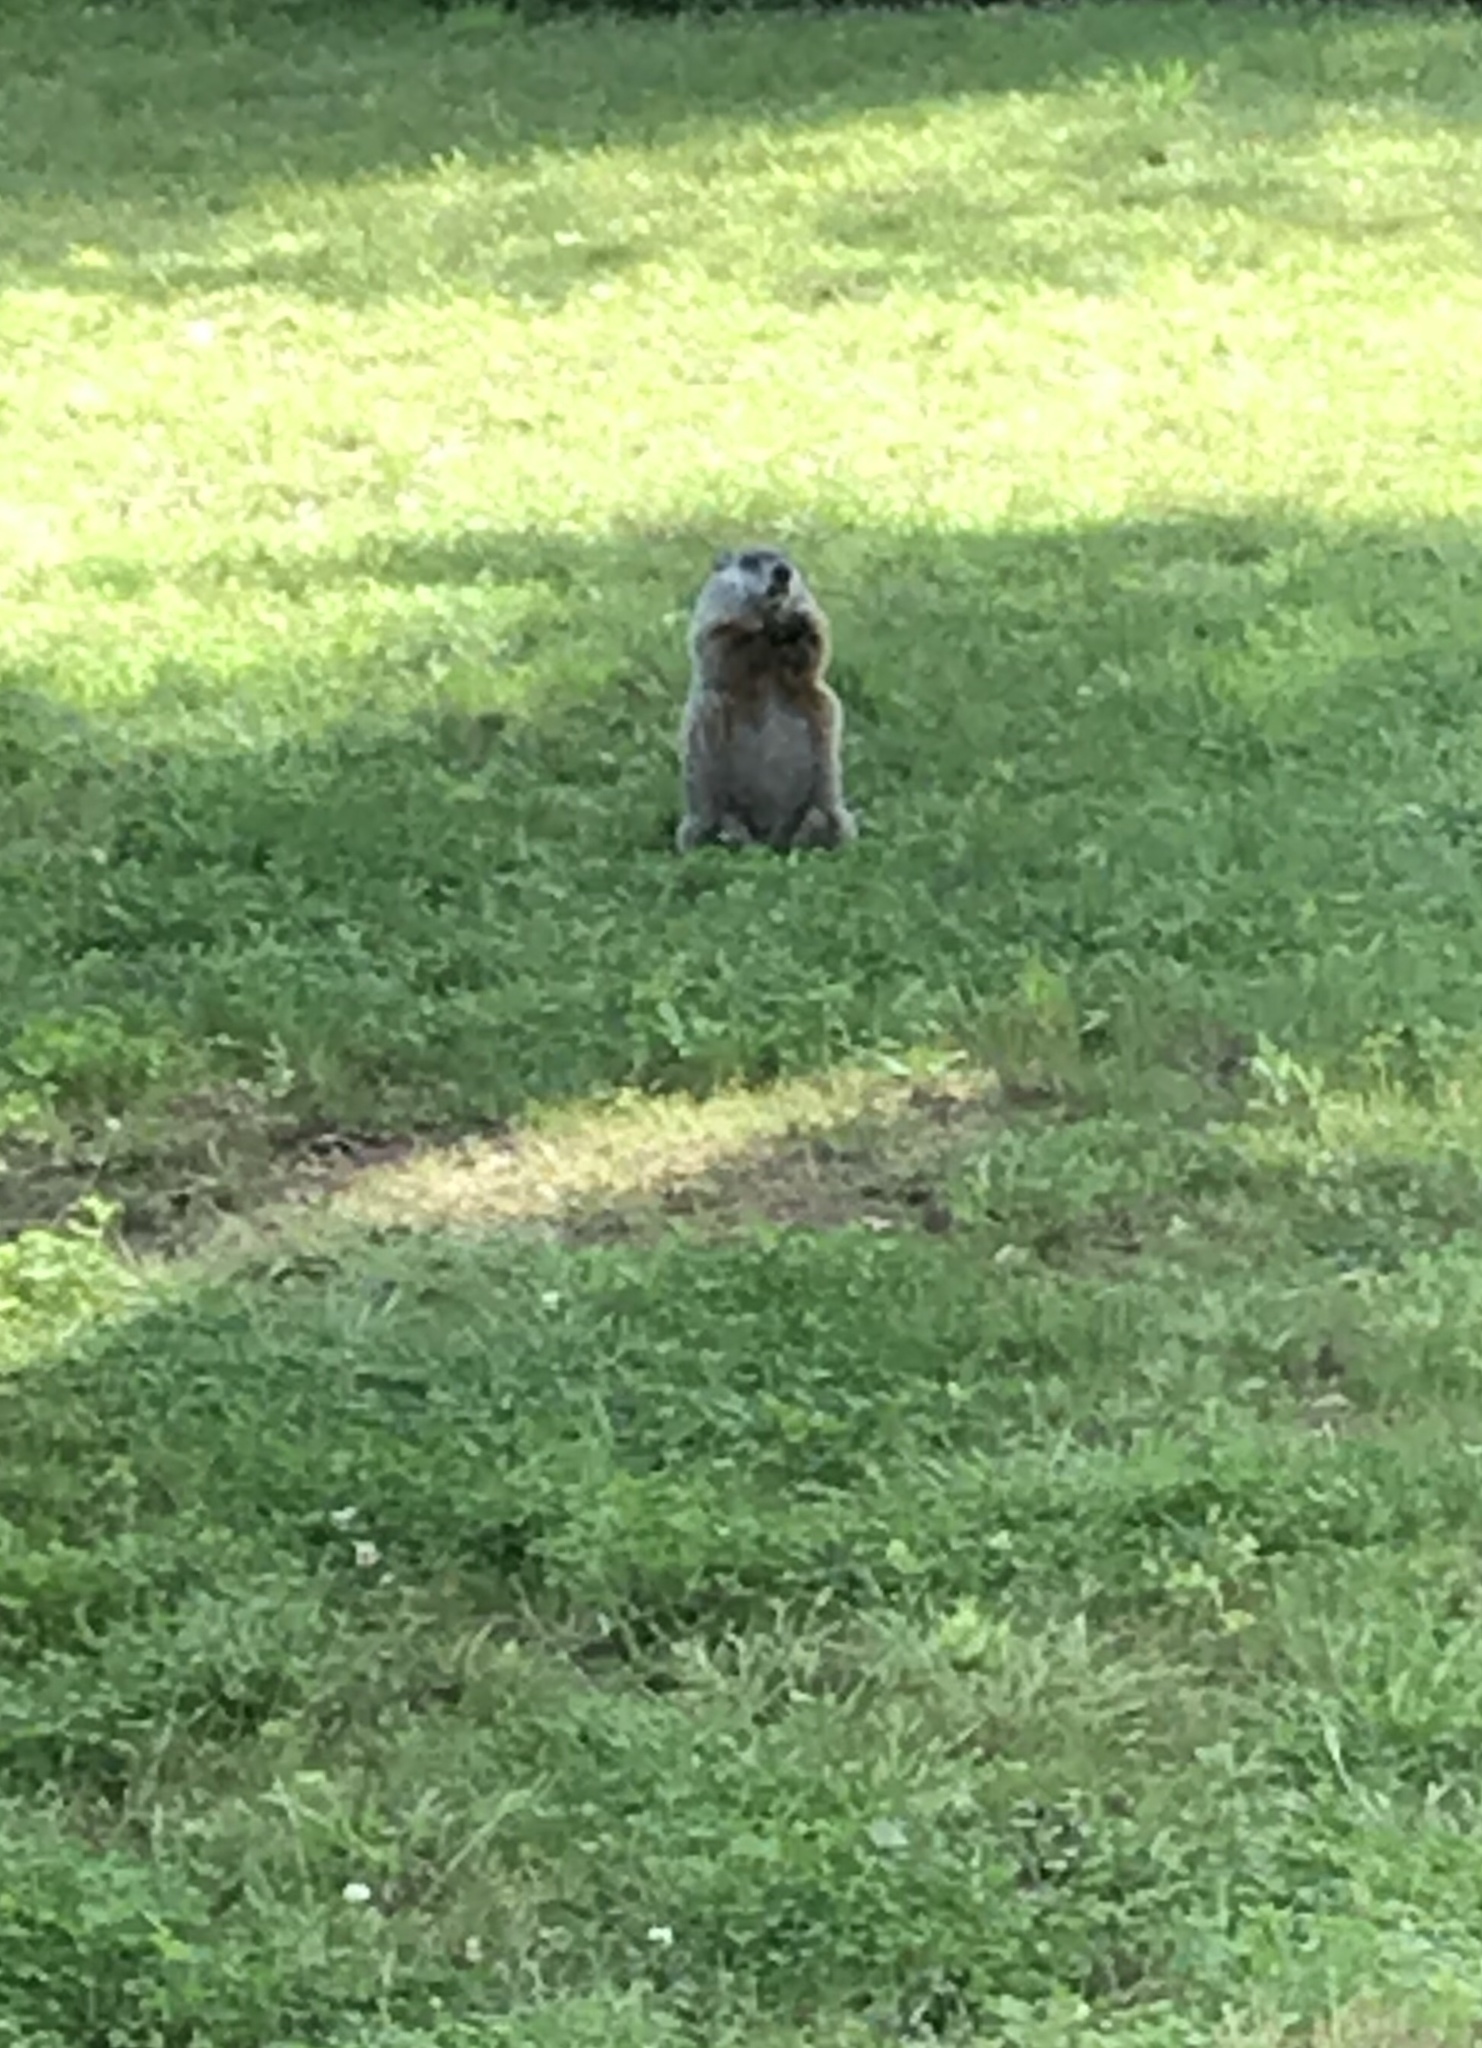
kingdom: Animalia
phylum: Chordata
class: Mammalia
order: Rodentia
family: Sciuridae
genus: Marmota
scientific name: Marmota monax
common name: Groundhog
